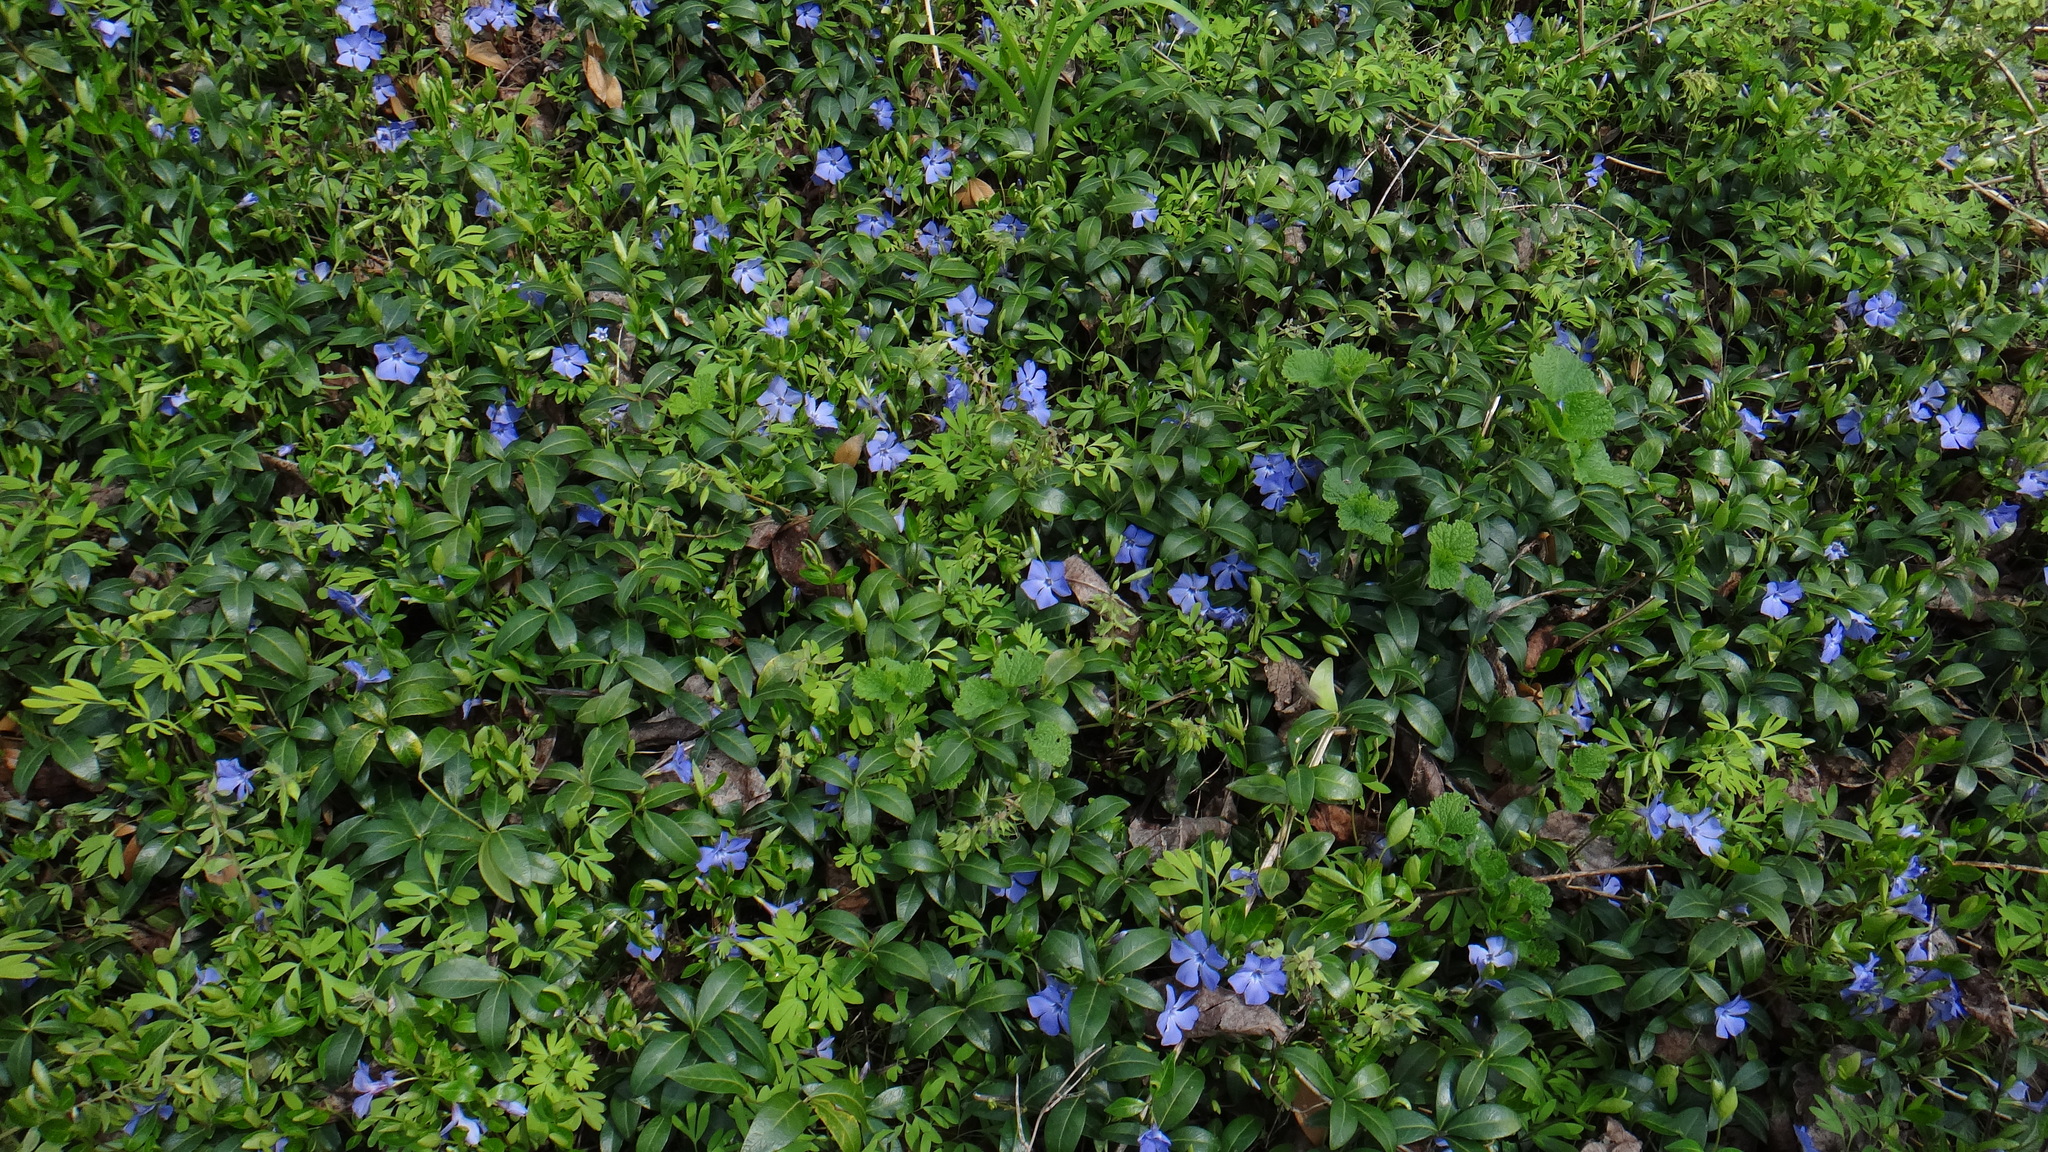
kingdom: Plantae
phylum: Tracheophyta
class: Magnoliopsida
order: Gentianales
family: Apocynaceae
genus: Vinca
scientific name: Vinca minor
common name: Lesser periwinkle
